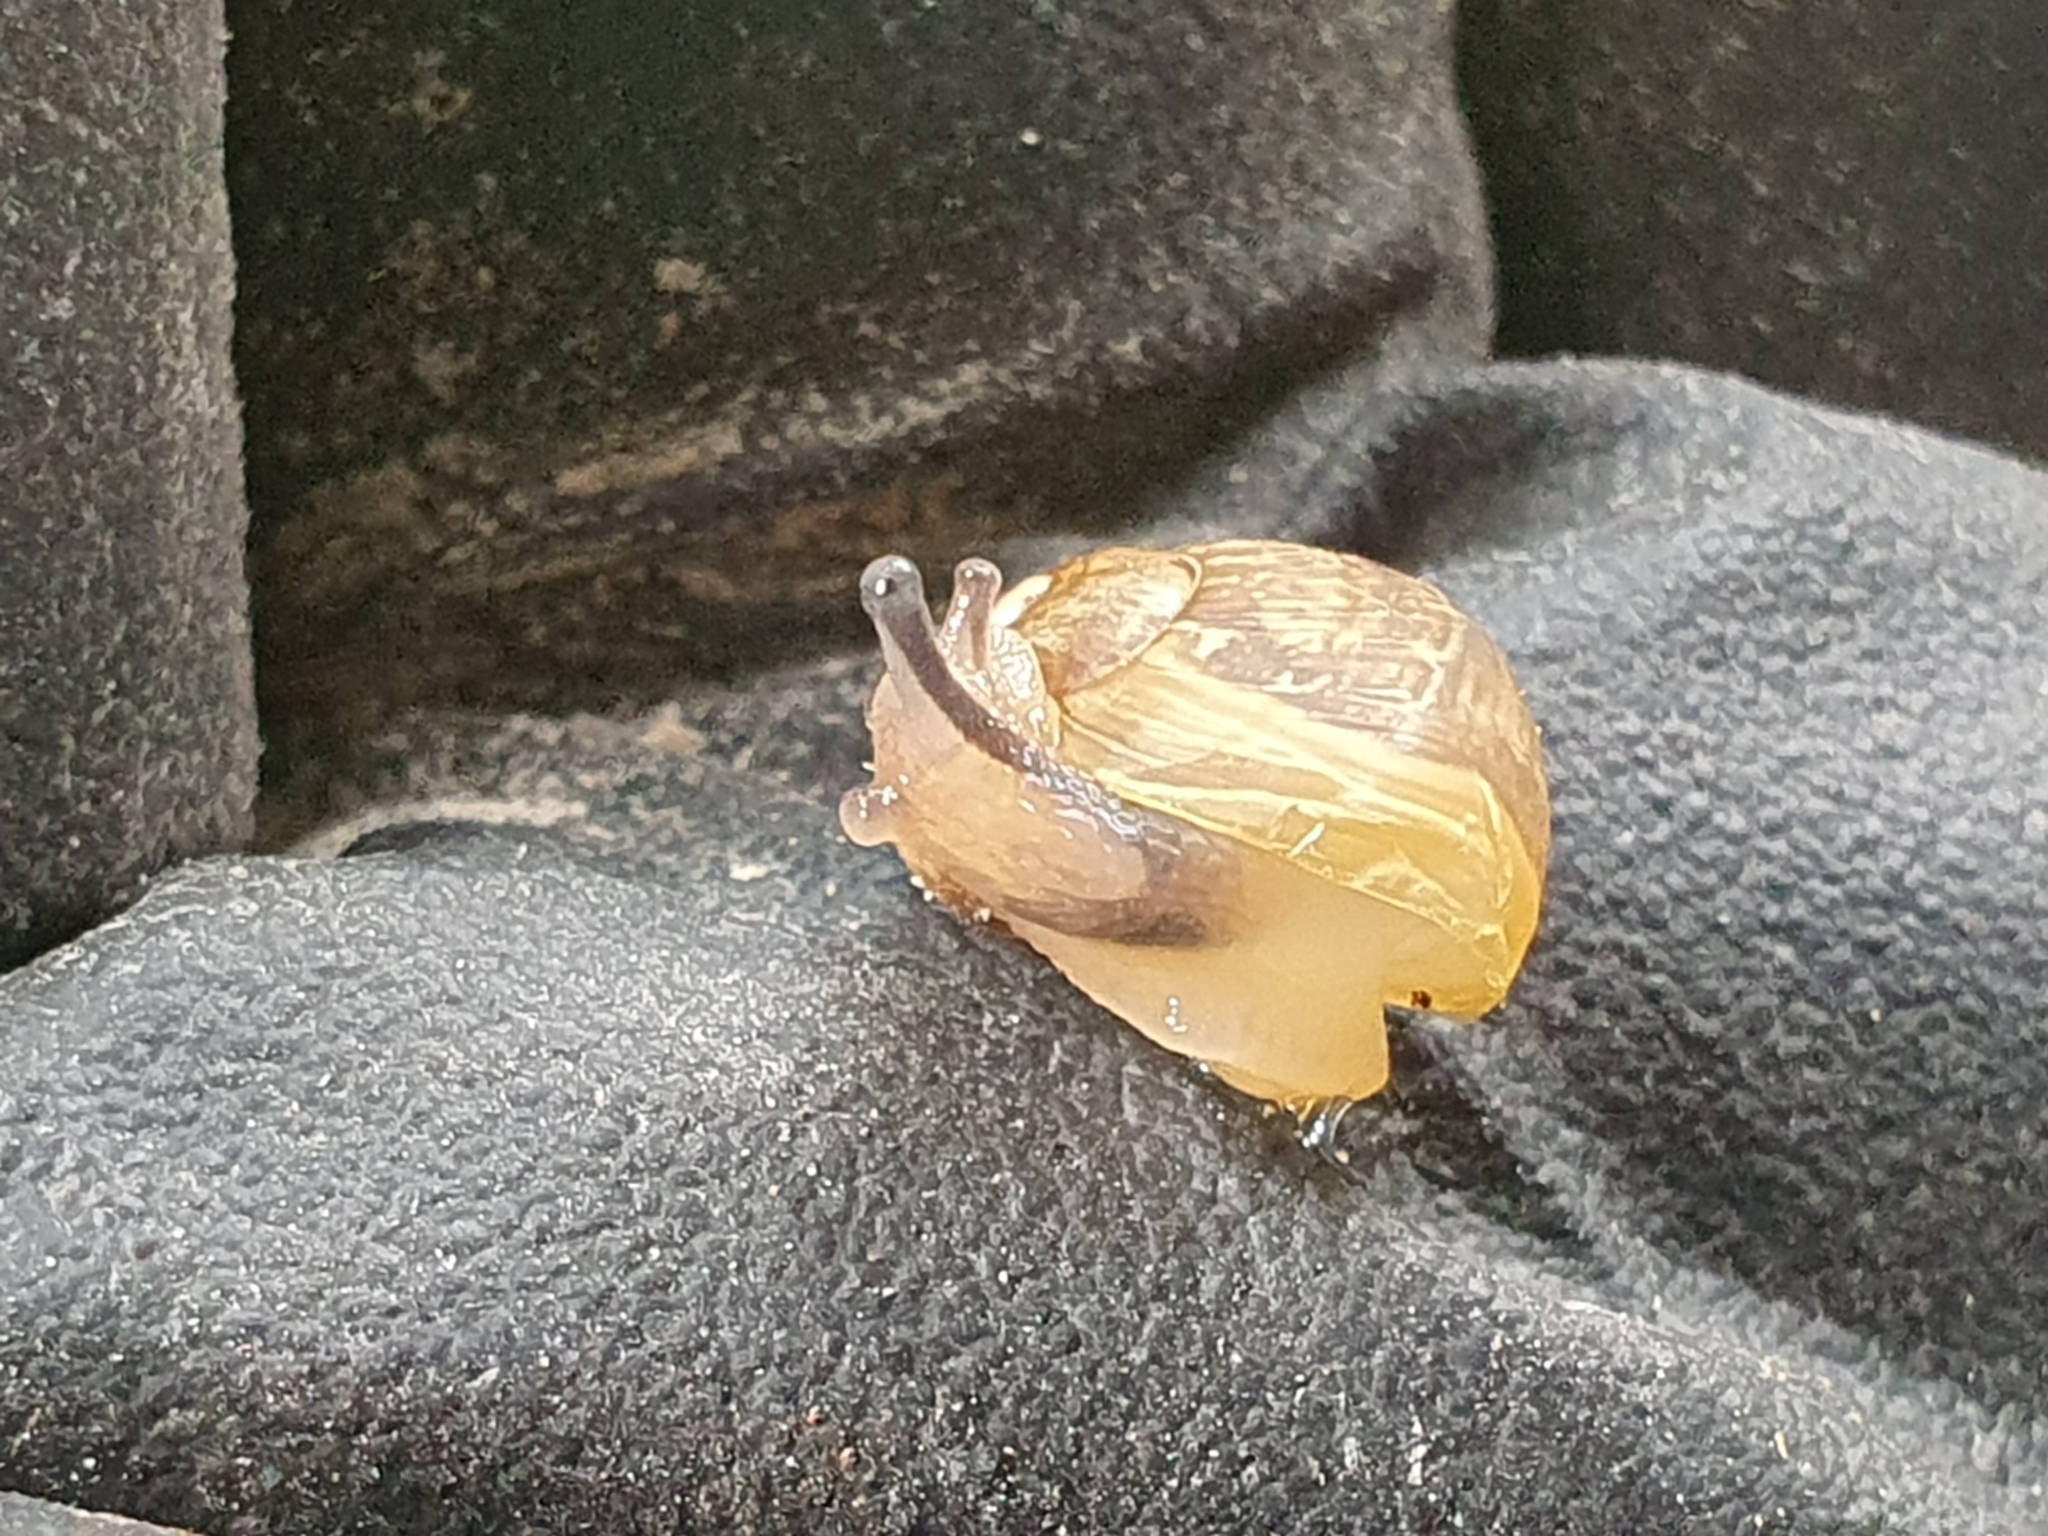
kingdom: Animalia
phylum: Mollusca
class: Gastropoda
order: Stylommatophora
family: Helicidae
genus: Cornu
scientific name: Cornu aspersum
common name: Brown garden snail
